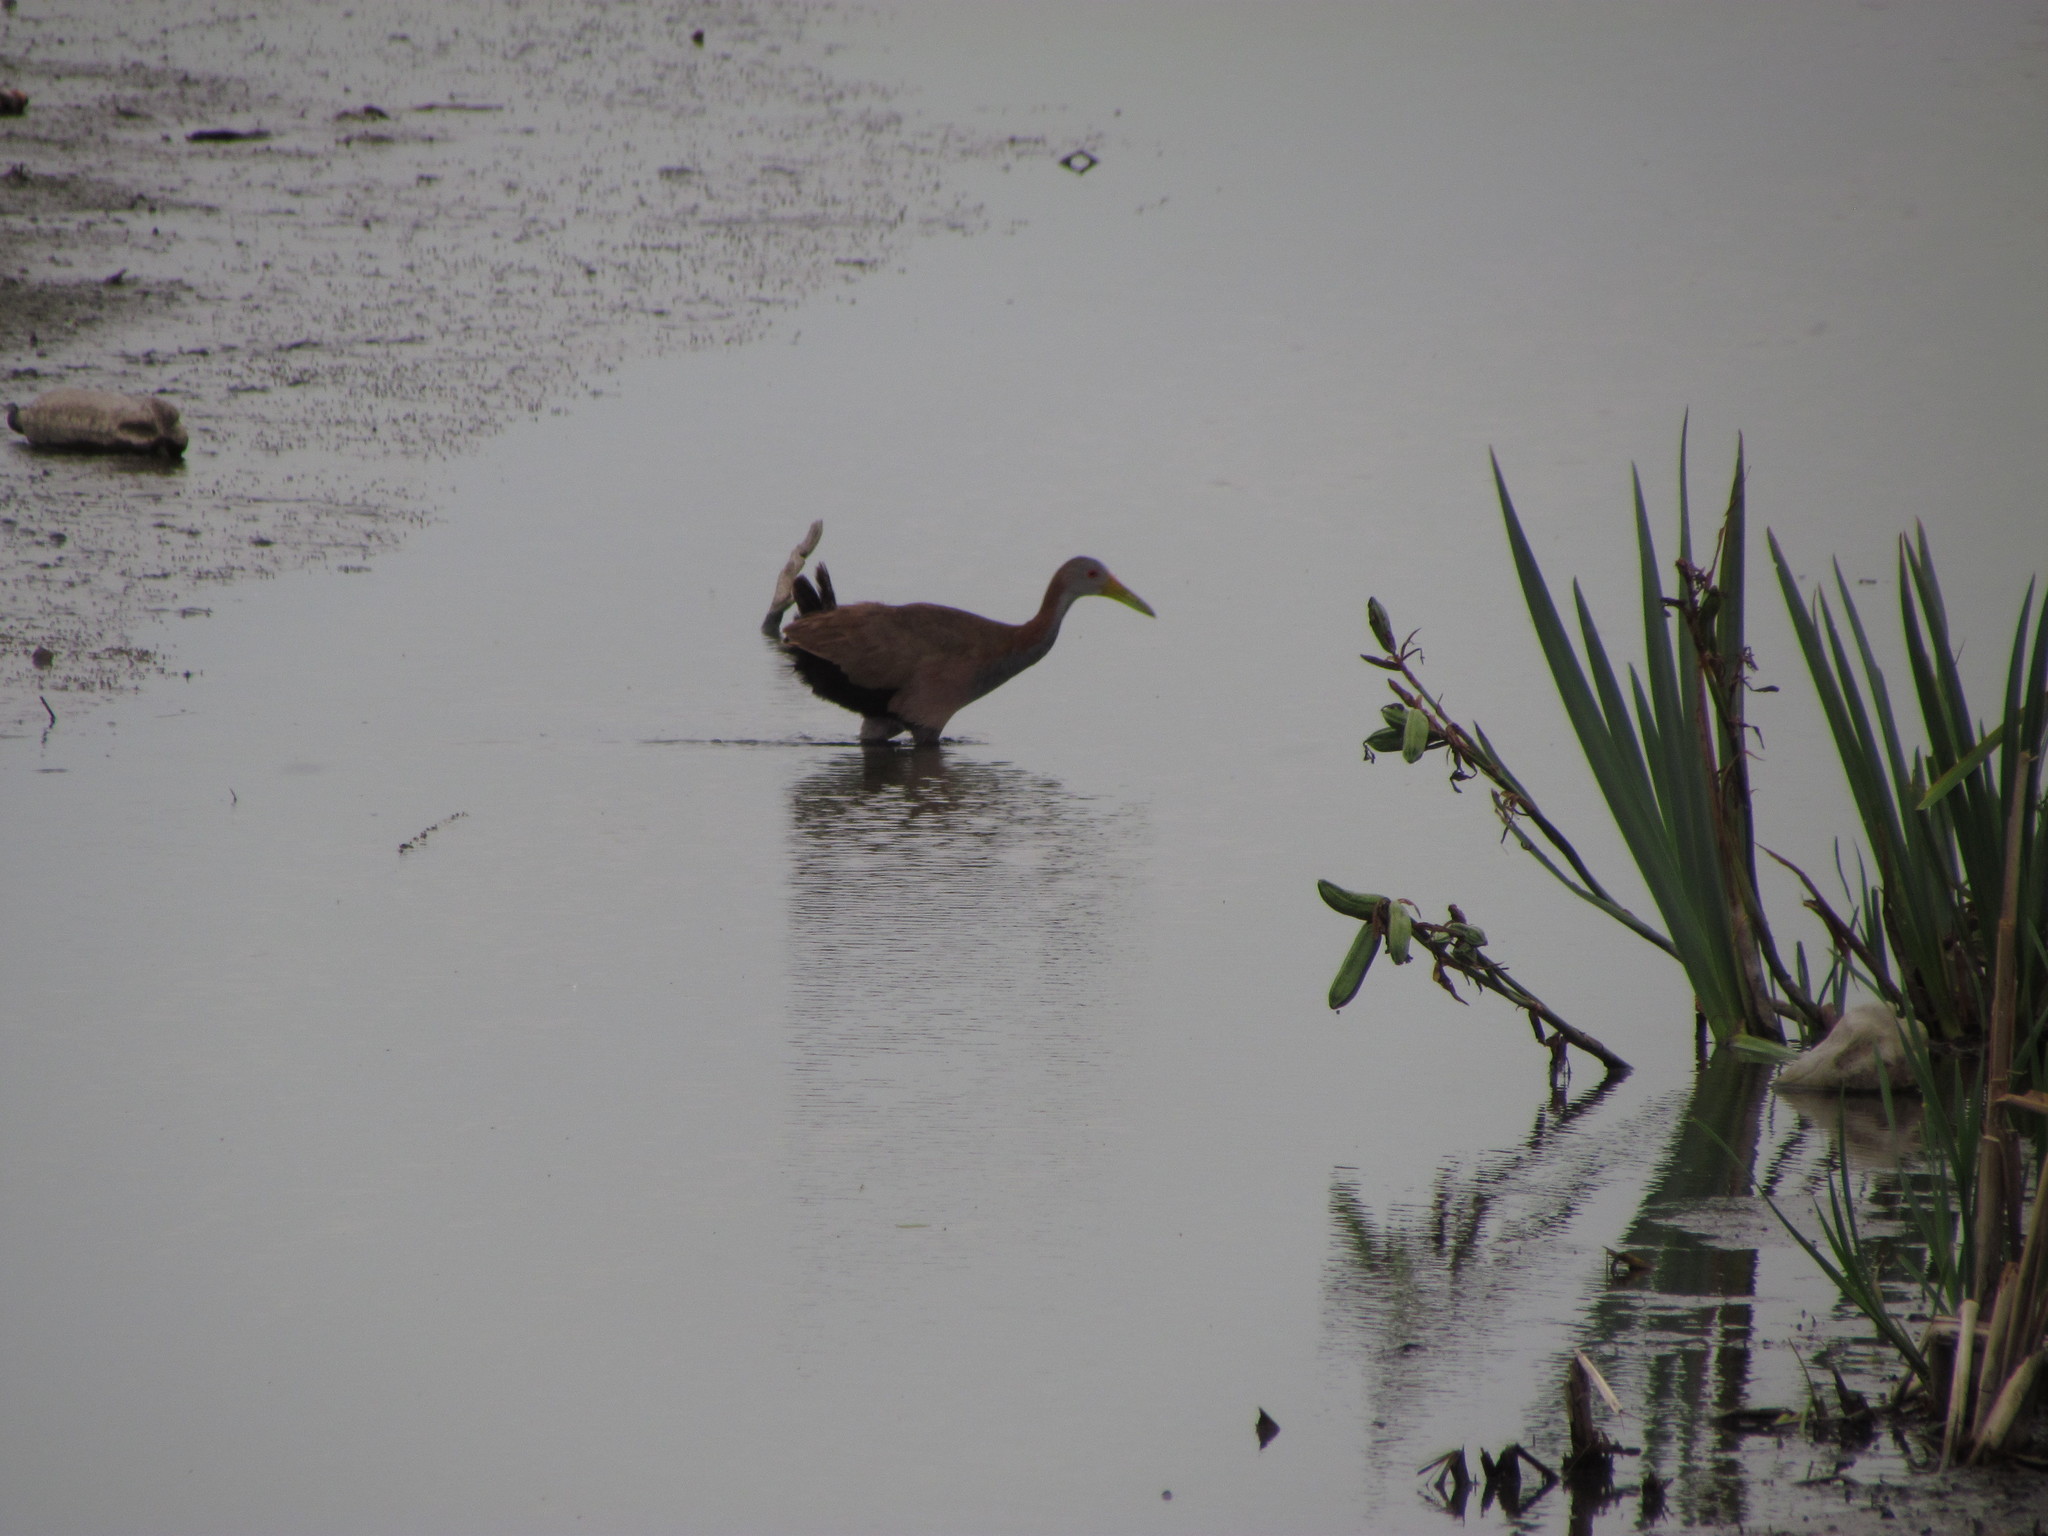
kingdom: Animalia
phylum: Chordata
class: Aves
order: Gruiformes
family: Rallidae
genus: Aramides
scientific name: Aramides ypecaha
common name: Giant wood rail
